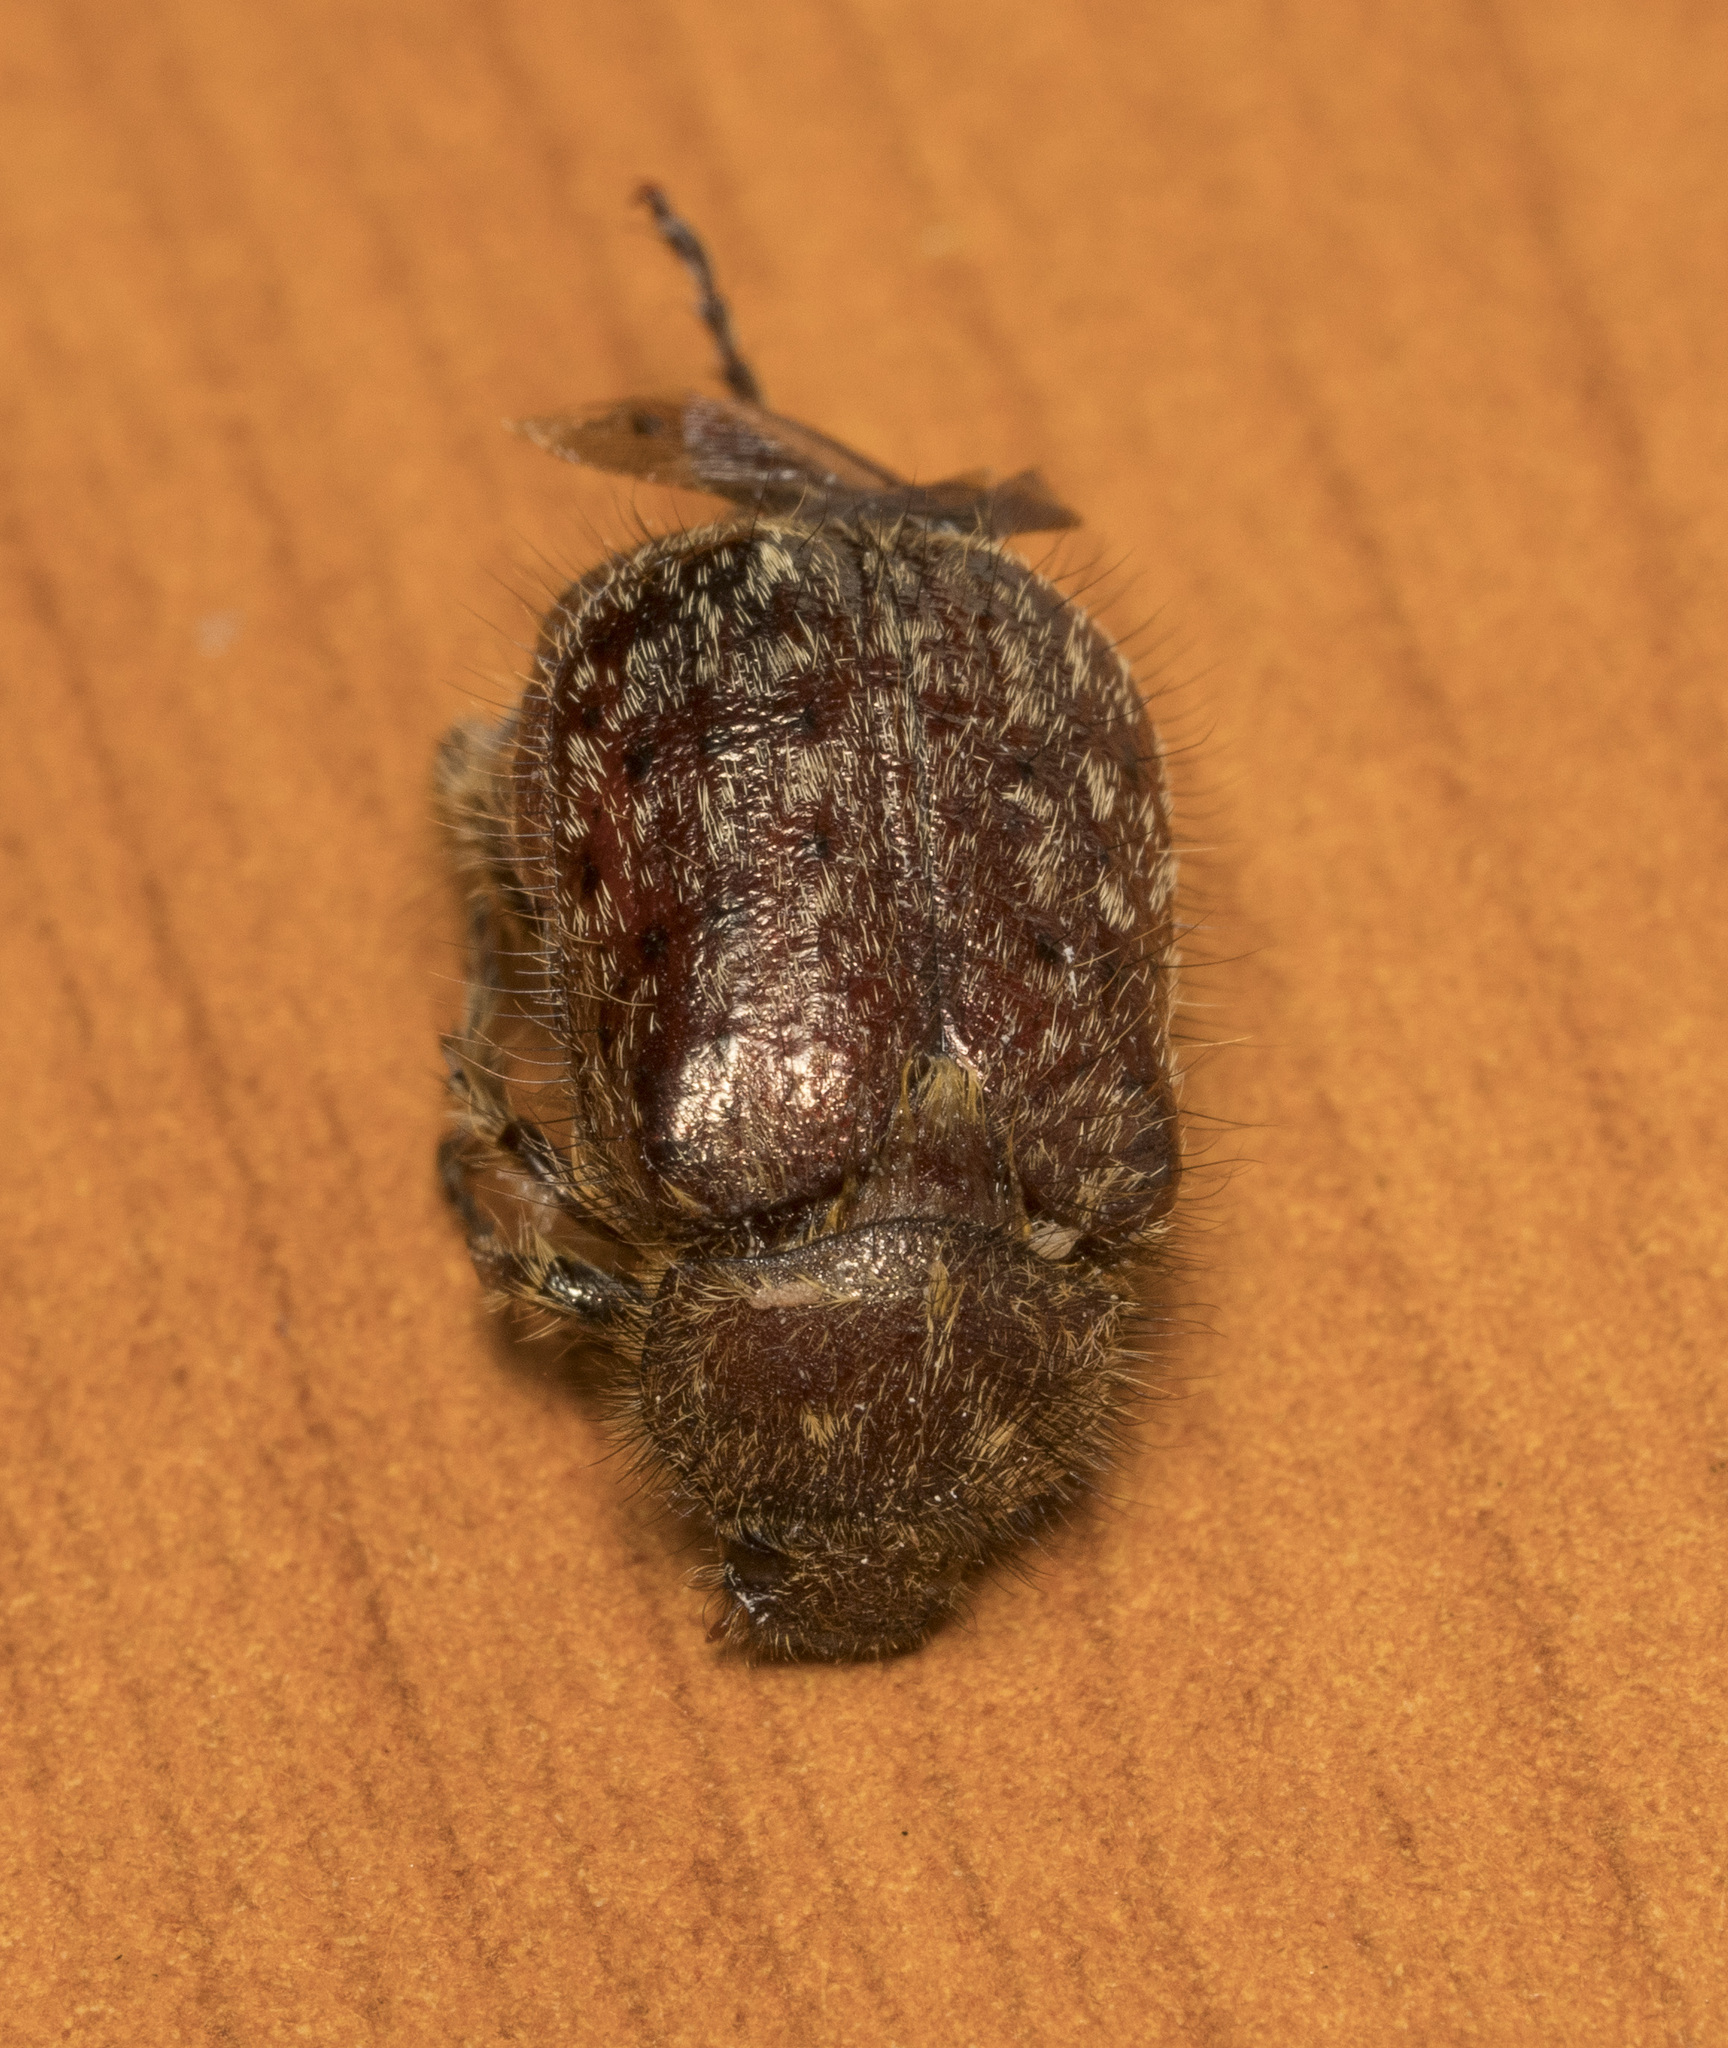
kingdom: Animalia
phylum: Arthropoda
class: Insecta
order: Coleoptera
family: Scarabaeidae
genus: Diaphylla
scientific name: Diaphylla lampropyga
